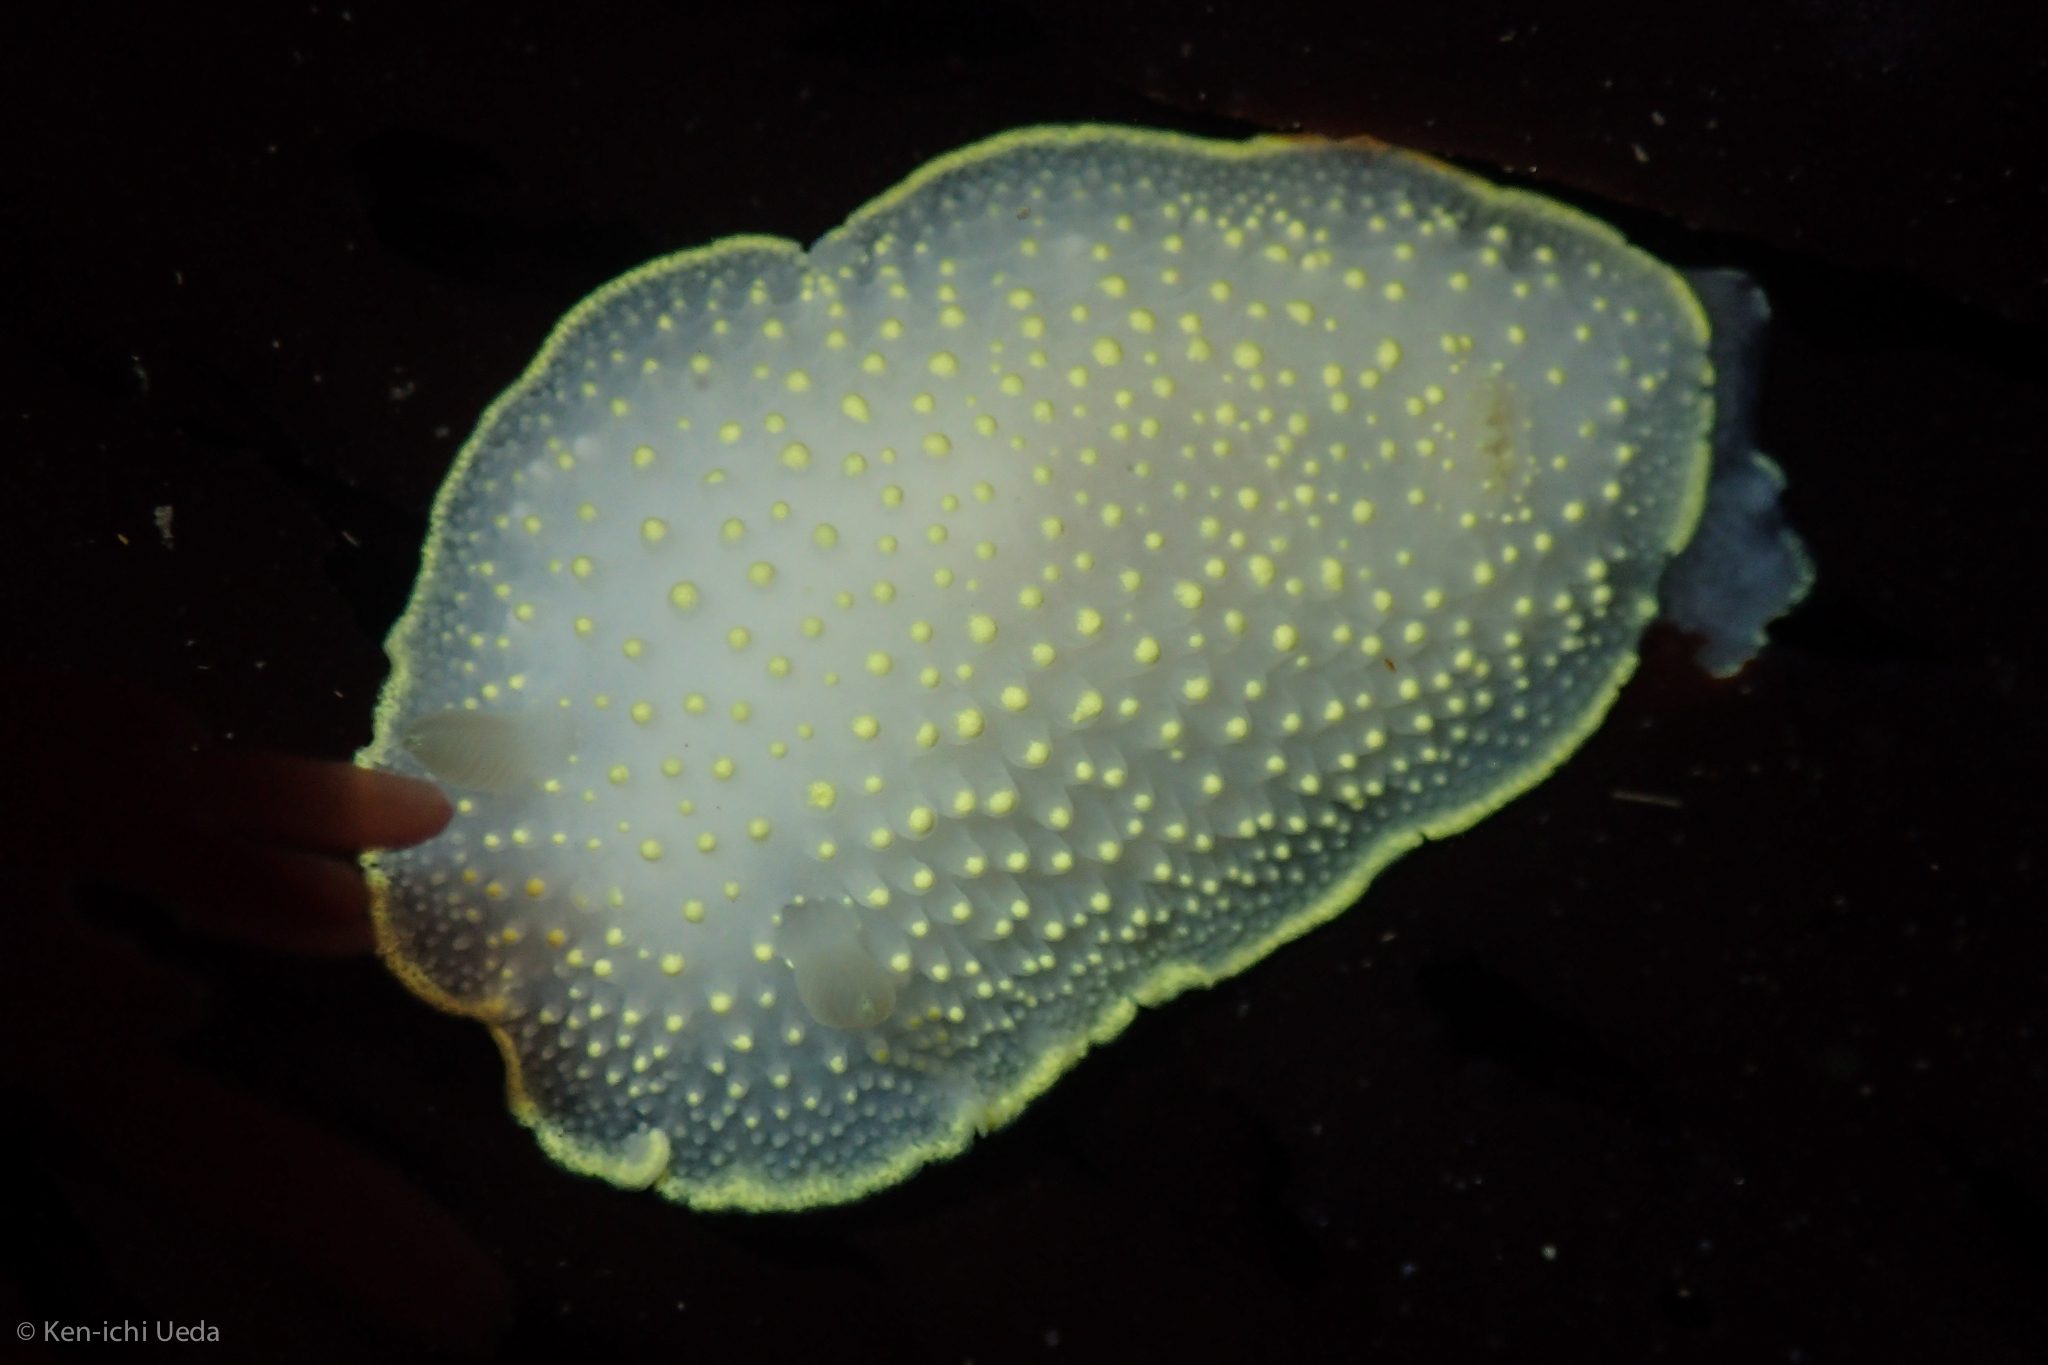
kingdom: Animalia
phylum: Mollusca
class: Gastropoda
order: Nudibranchia
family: Cadlinidae
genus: Cadlina
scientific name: Cadlina luteomarginata
